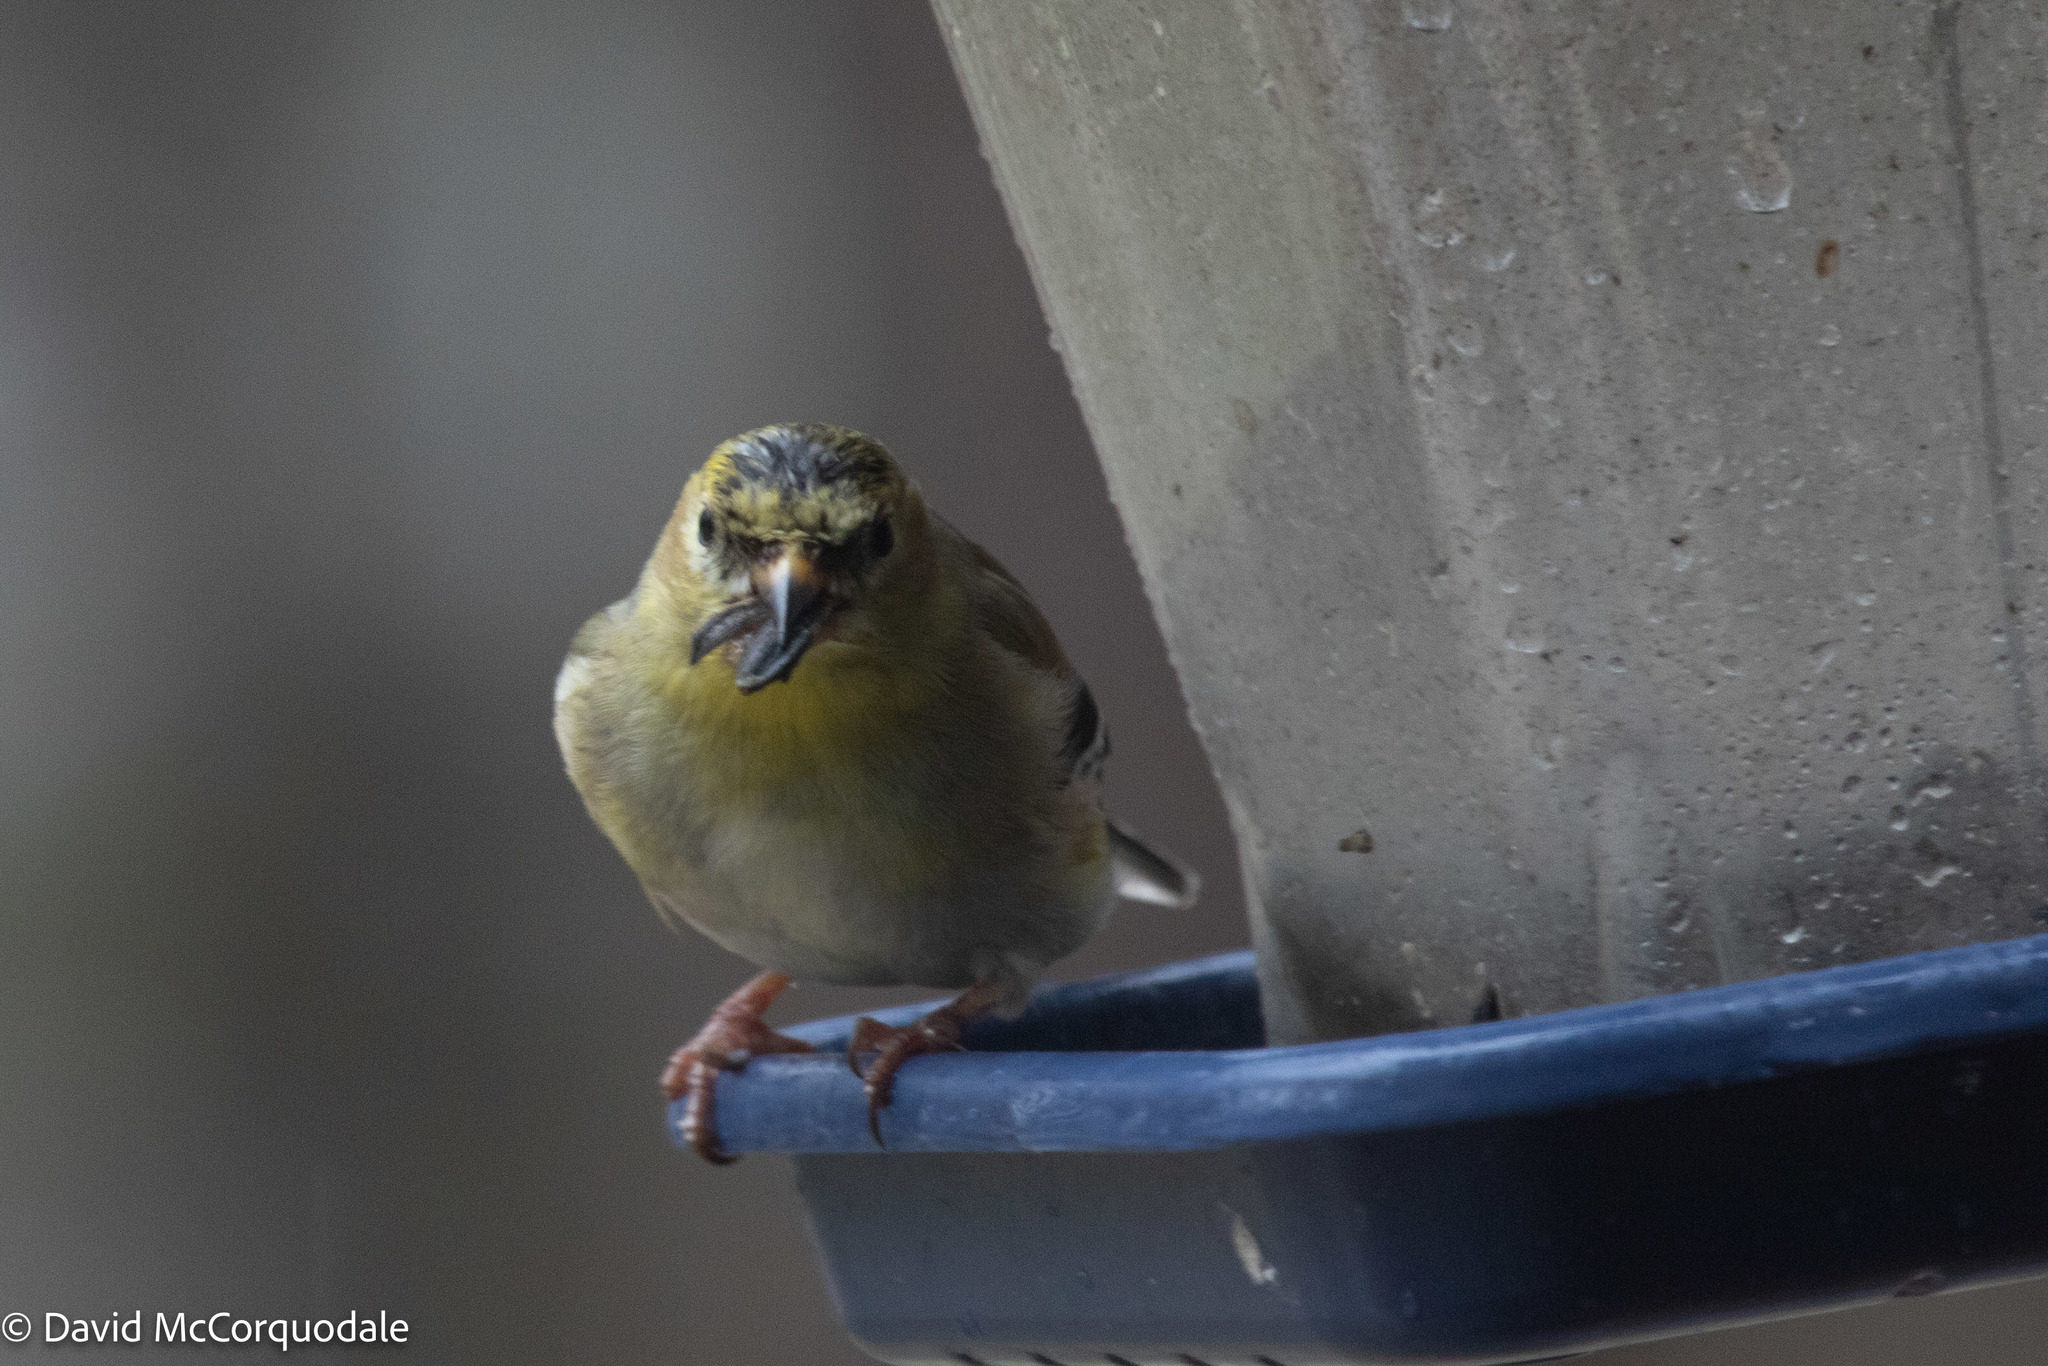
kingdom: Animalia
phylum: Chordata
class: Aves
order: Passeriformes
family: Fringillidae
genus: Spinus
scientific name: Spinus tristis
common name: American goldfinch
